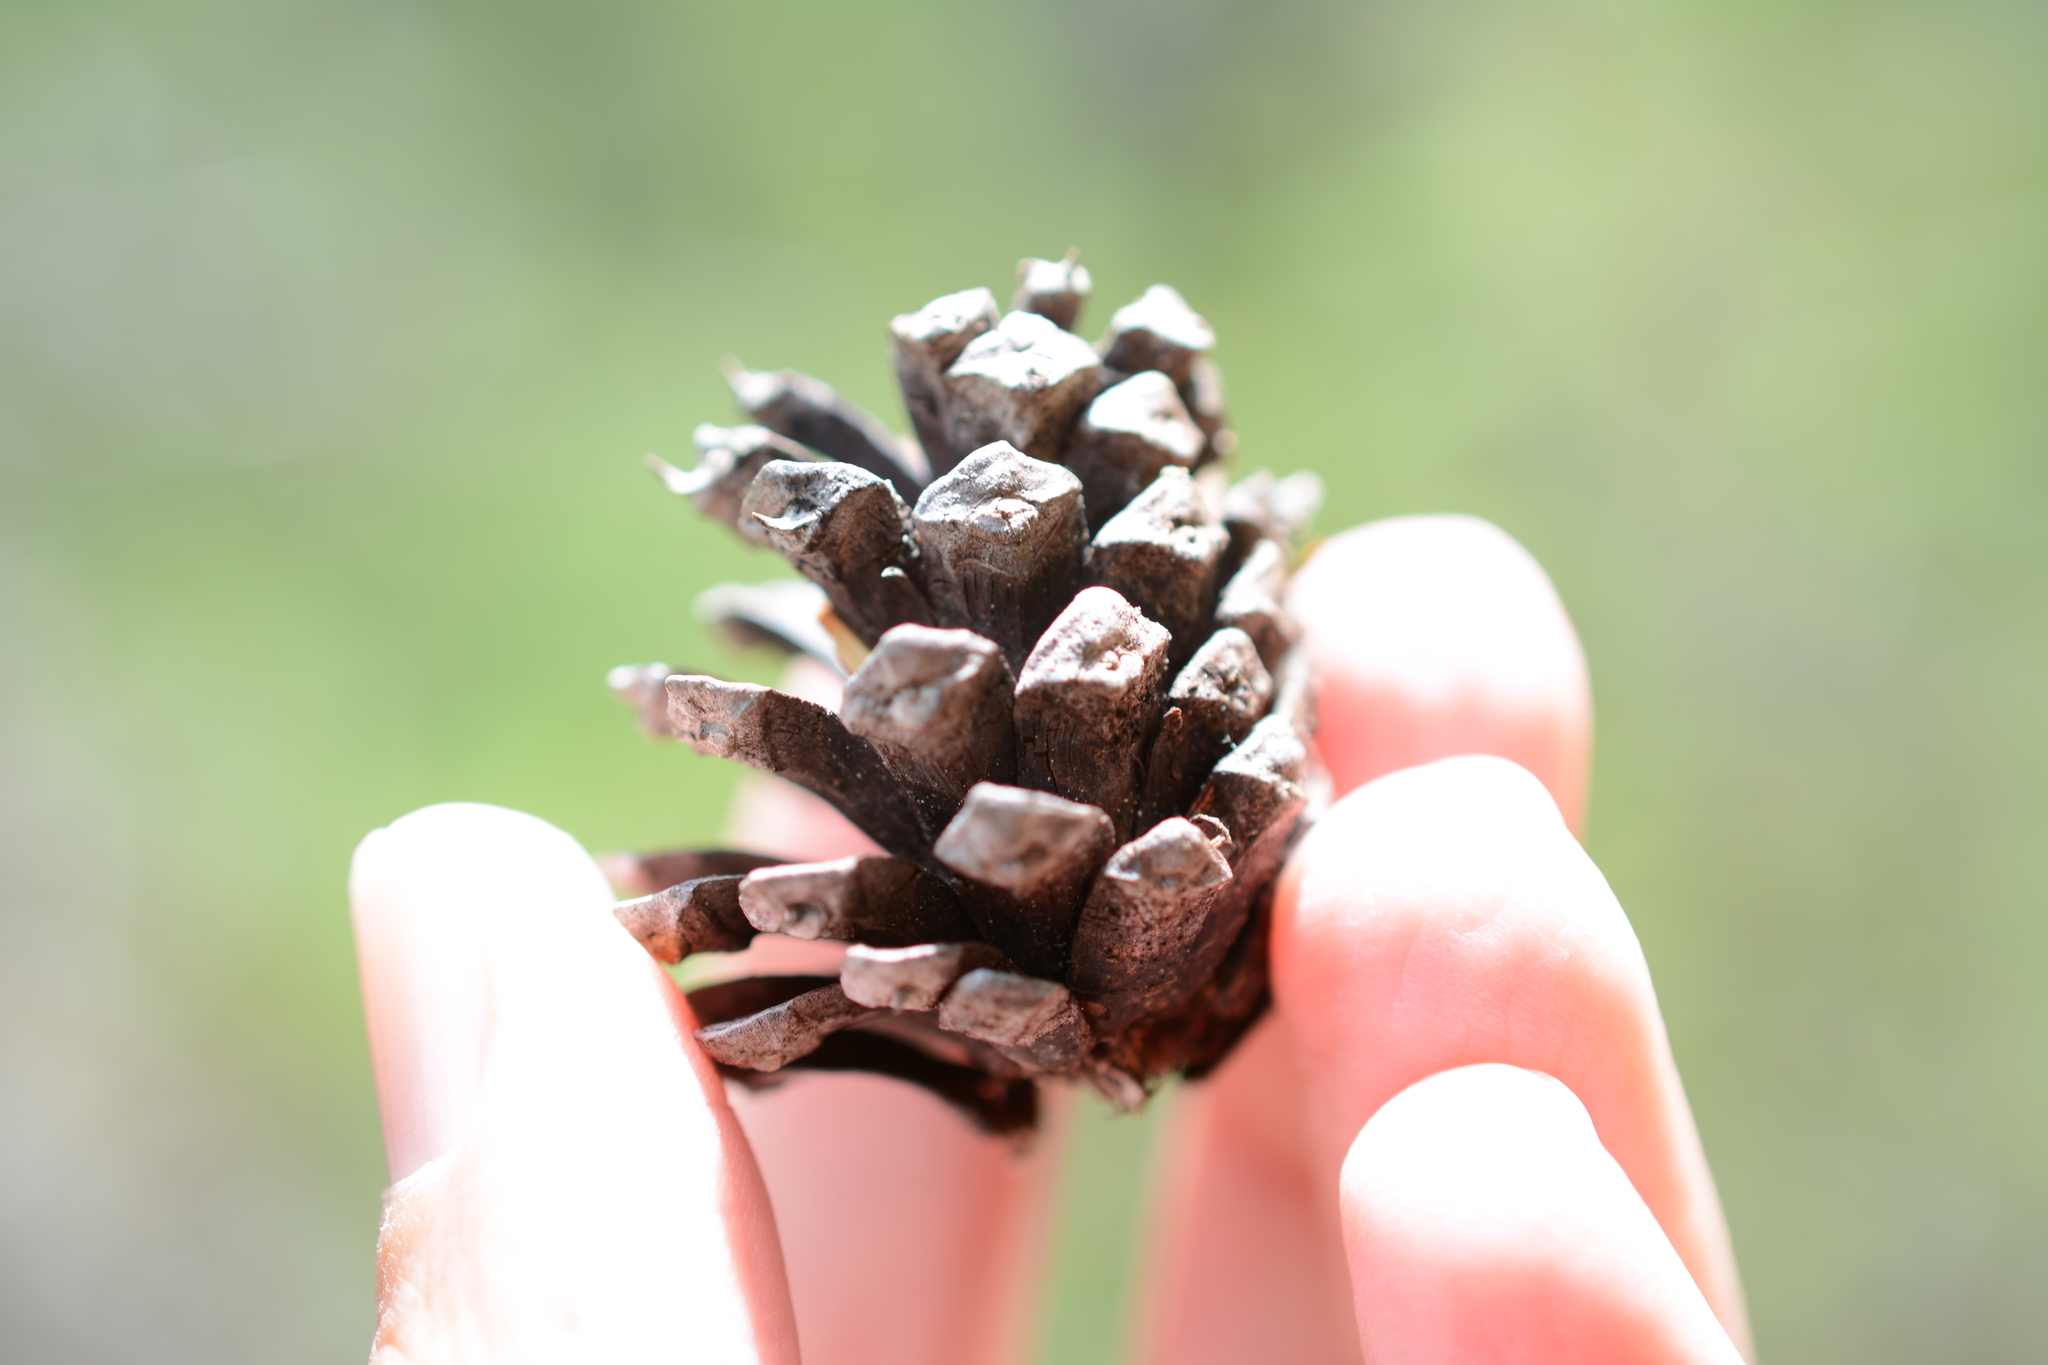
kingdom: Plantae
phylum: Tracheophyta
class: Pinopsida
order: Pinales
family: Pinaceae
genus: Pinus
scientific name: Pinus contorta
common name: Lodgepole pine
